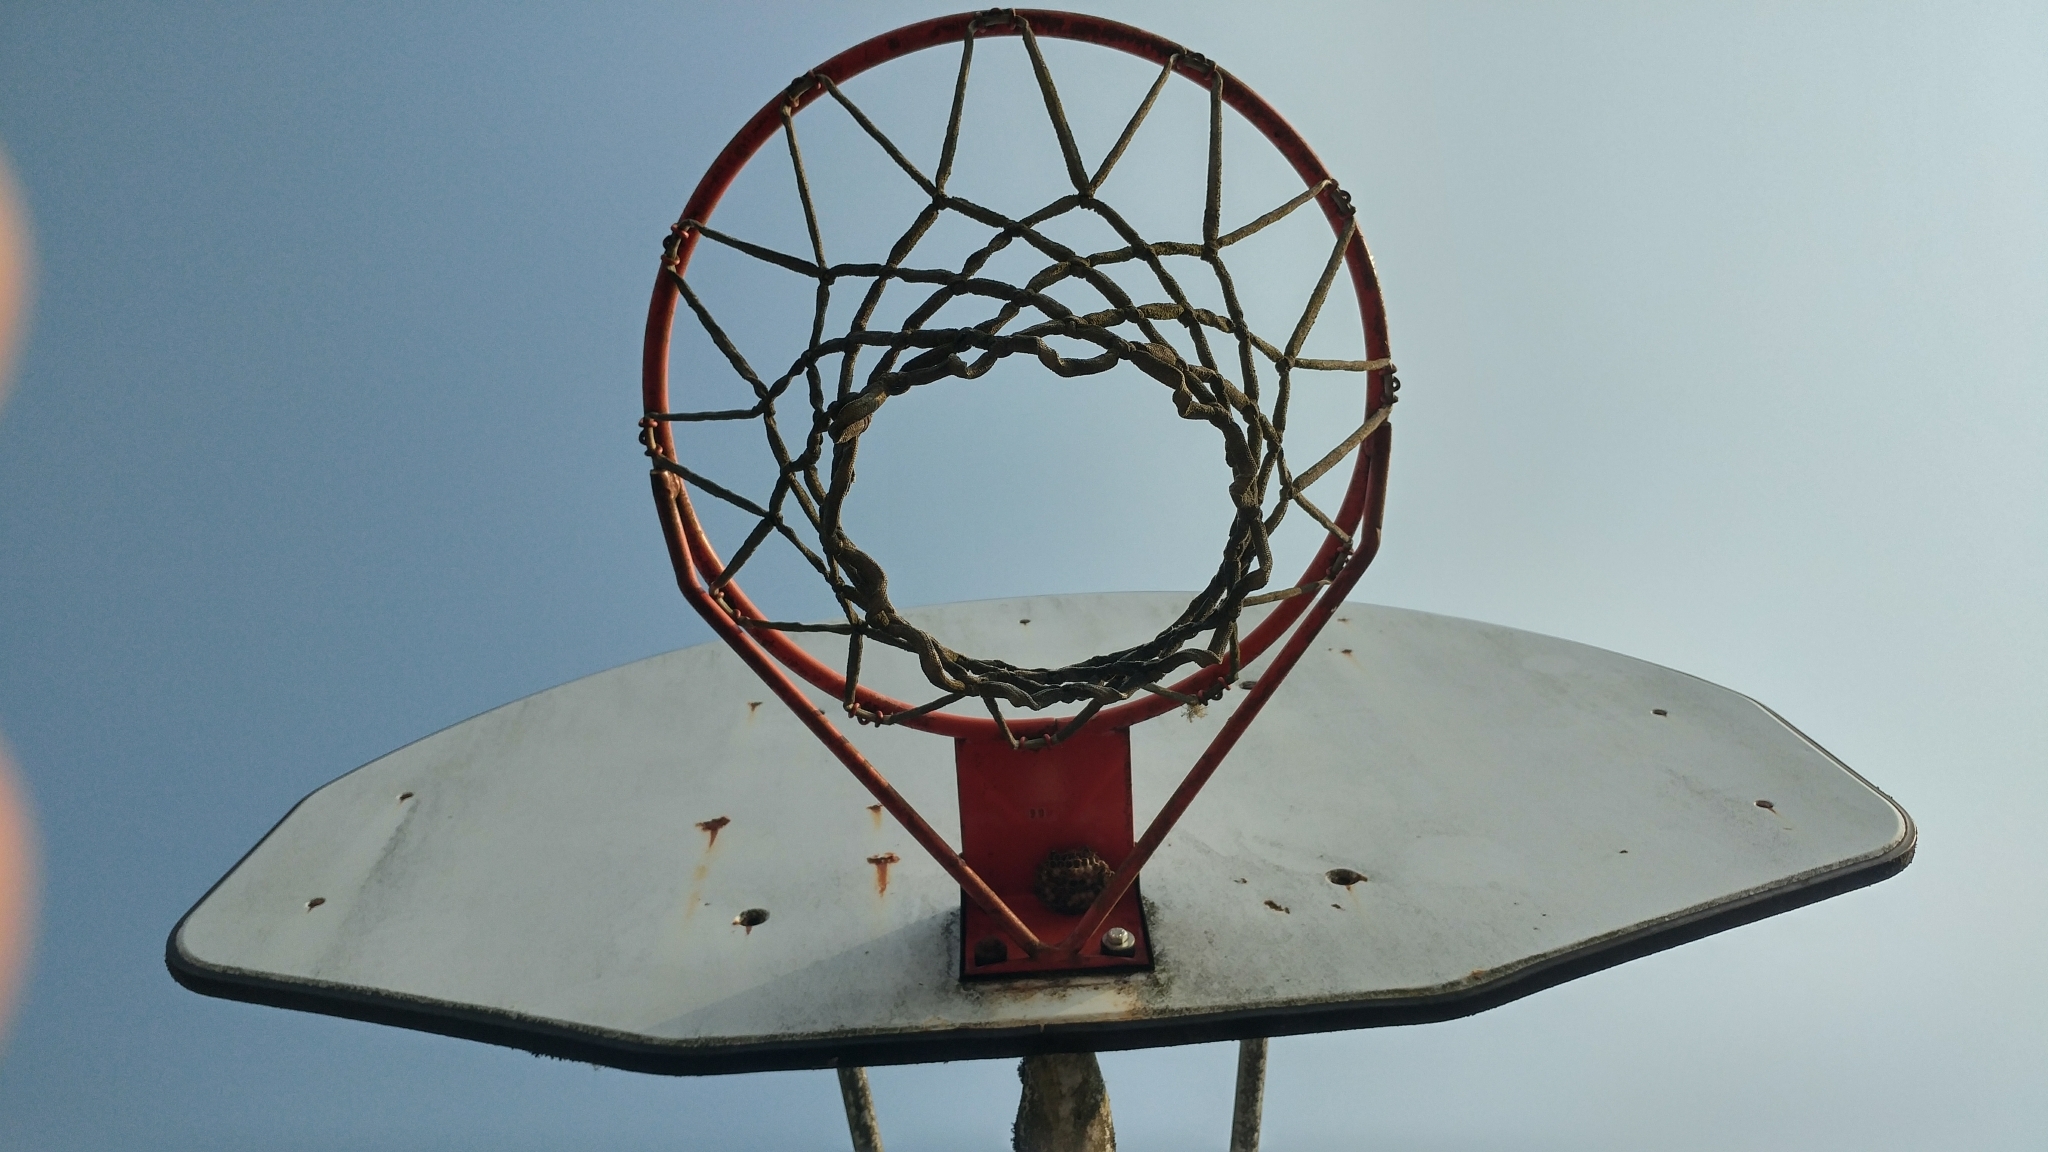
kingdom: Animalia
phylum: Arthropoda
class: Insecta
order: Hymenoptera
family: Eumenidae
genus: Polistes
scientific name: Polistes dominula
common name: Paper wasp
